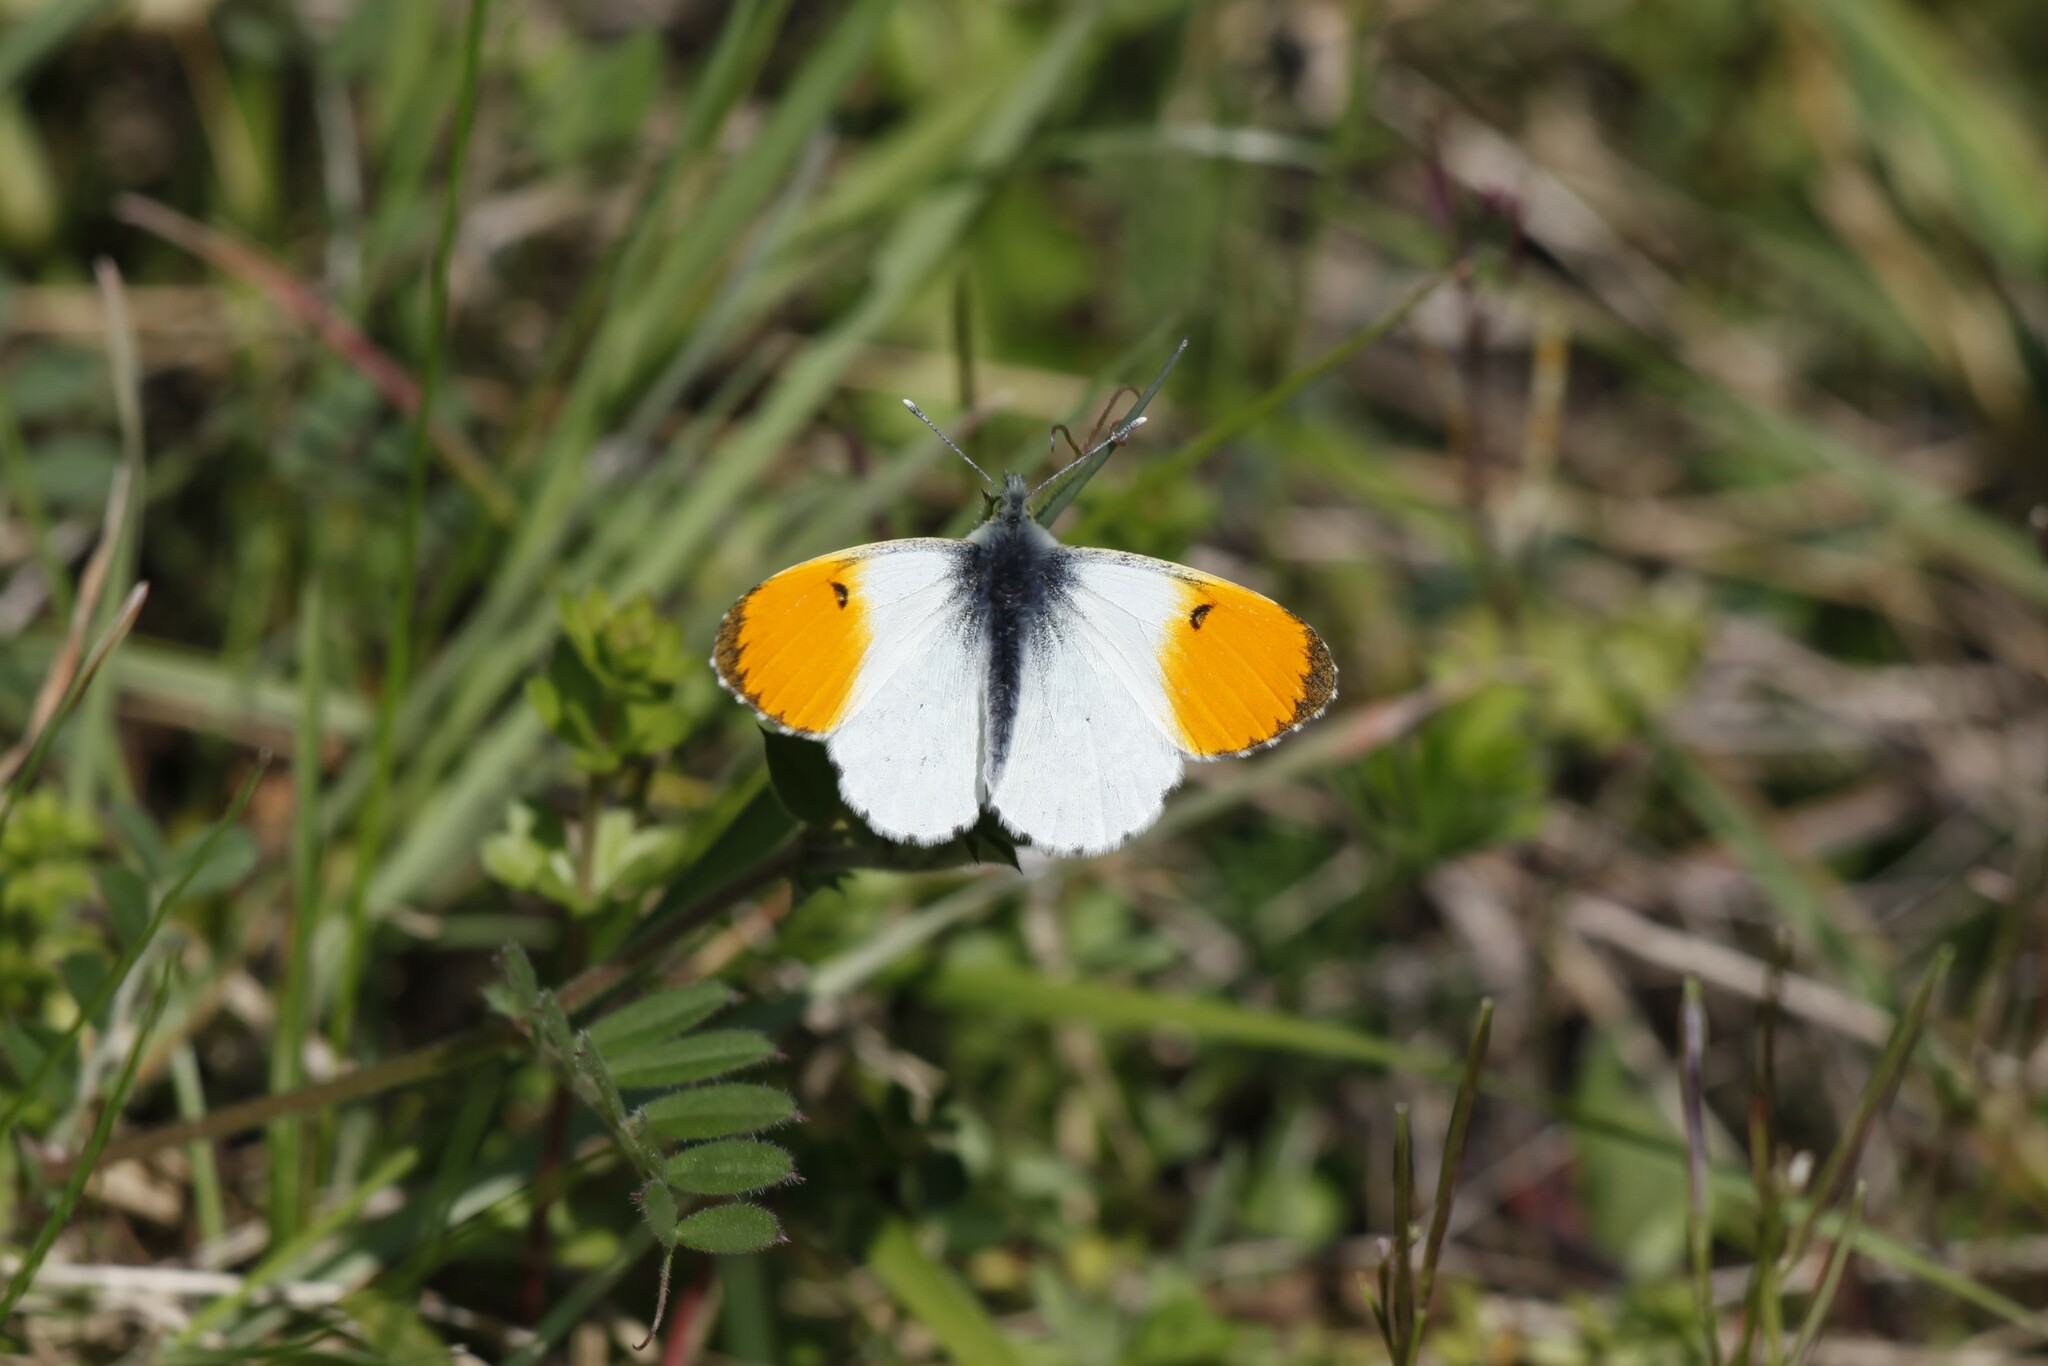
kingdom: Animalia
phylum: Arthropoda
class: Insecta
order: Lepidoptera
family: Pieridae
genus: Anthocharis
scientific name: Anthocharis cardamines
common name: Orange-tip
